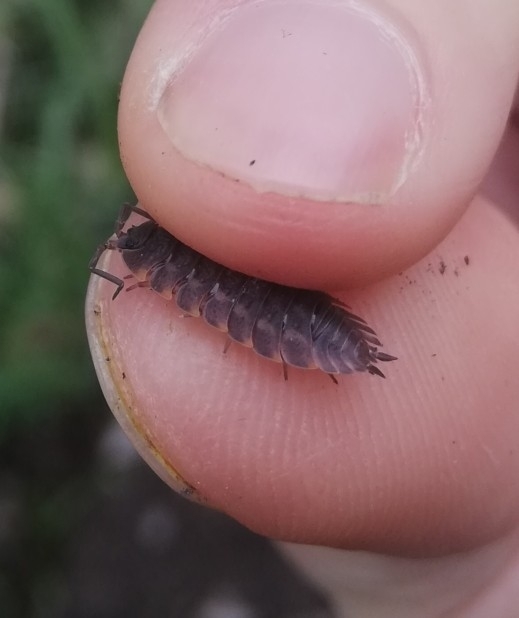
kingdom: Animalia
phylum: Arthropoda
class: Malacostraca
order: Isopoda
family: Trachelipodidae
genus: Trachelipus
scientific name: Trachelipus ratzeburgii
